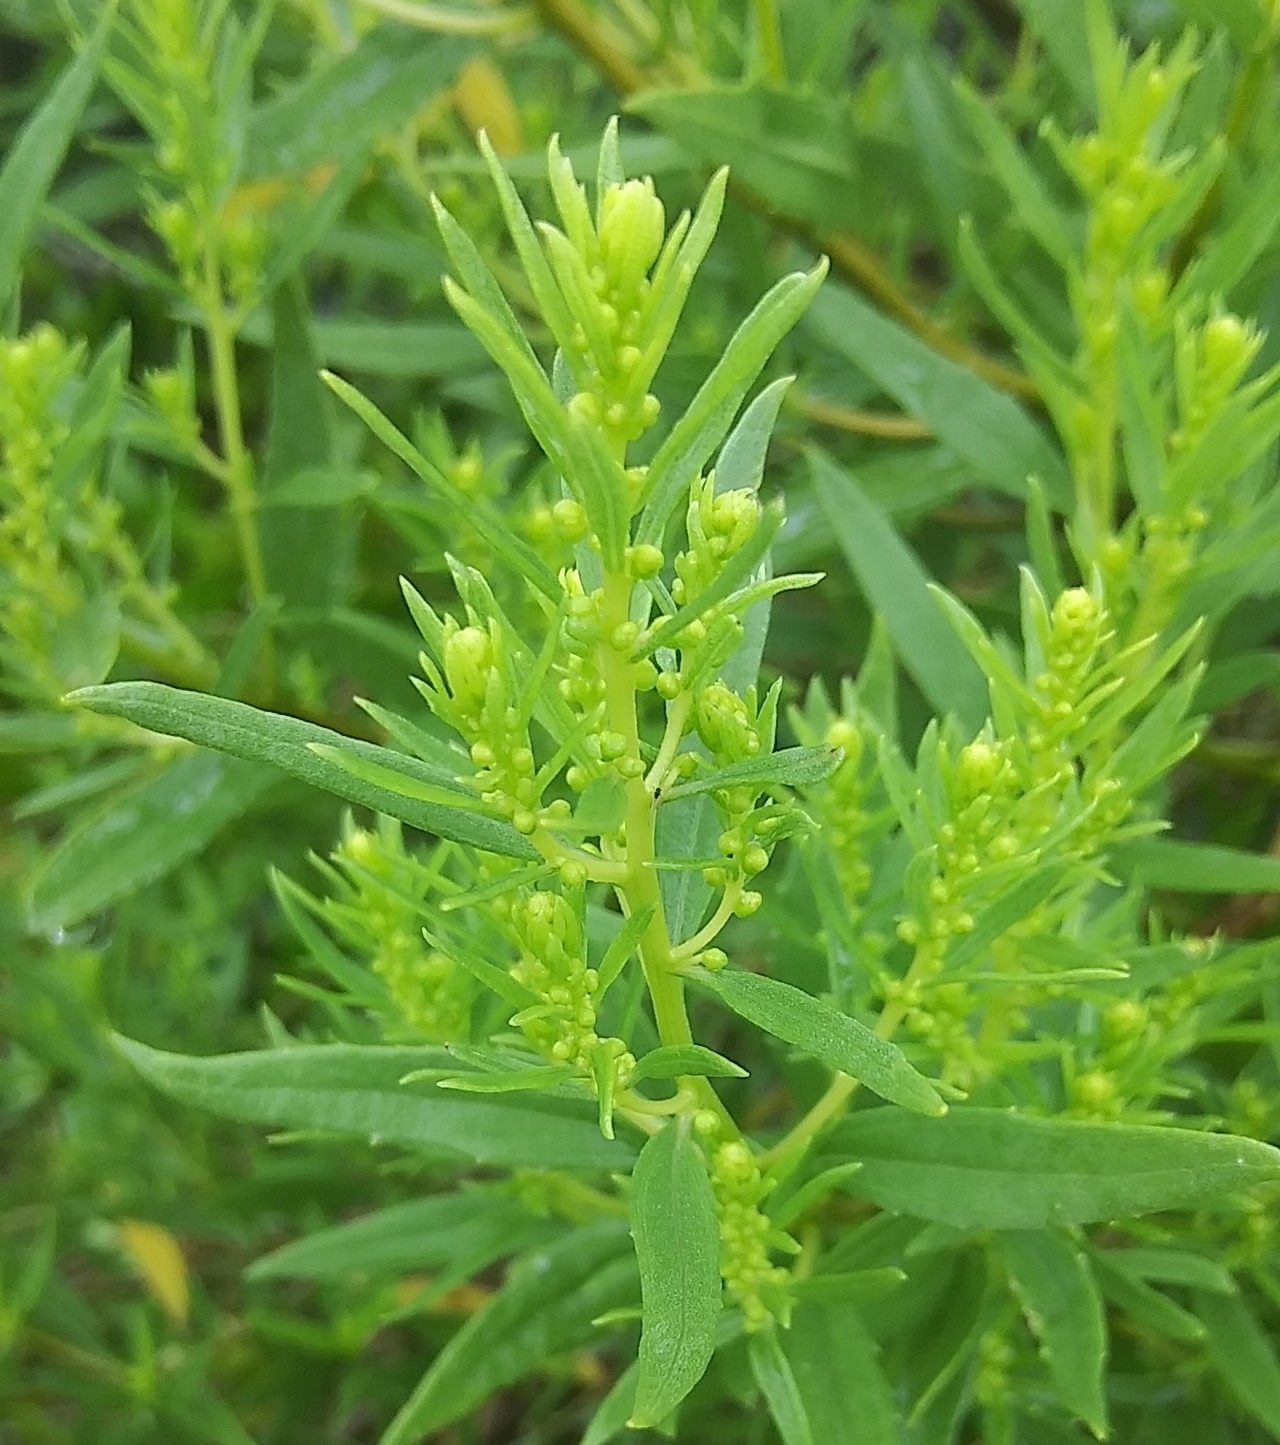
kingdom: Plantae
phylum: Tracheophyta
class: Magnoliopsida
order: Asterales
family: Asteraceae
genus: Iva
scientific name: Iva frutescens
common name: Big-leaved marsh-elder
